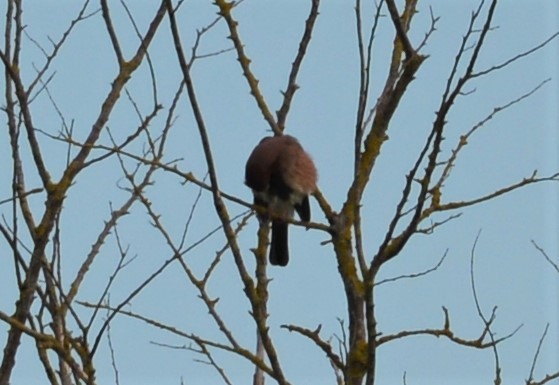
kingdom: Animalia
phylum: Chordata
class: Aves
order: Passeriformes
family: Corvidae
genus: Garrulus
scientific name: Garrulus glandarius
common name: Eurasian jay
